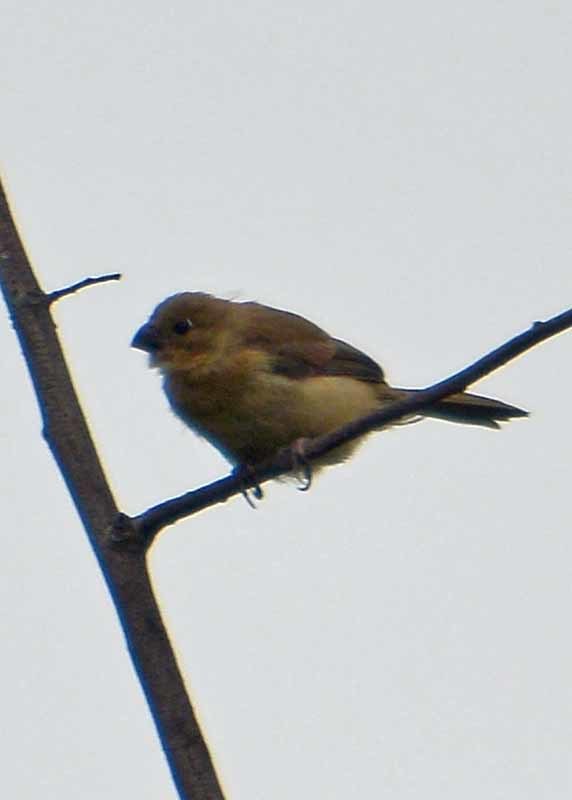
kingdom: Animalia
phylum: Chordata
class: Aves
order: Passeriformes
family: Thraupidae
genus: Sporophila
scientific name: Sporophila torqueola
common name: White-collared seedeater
